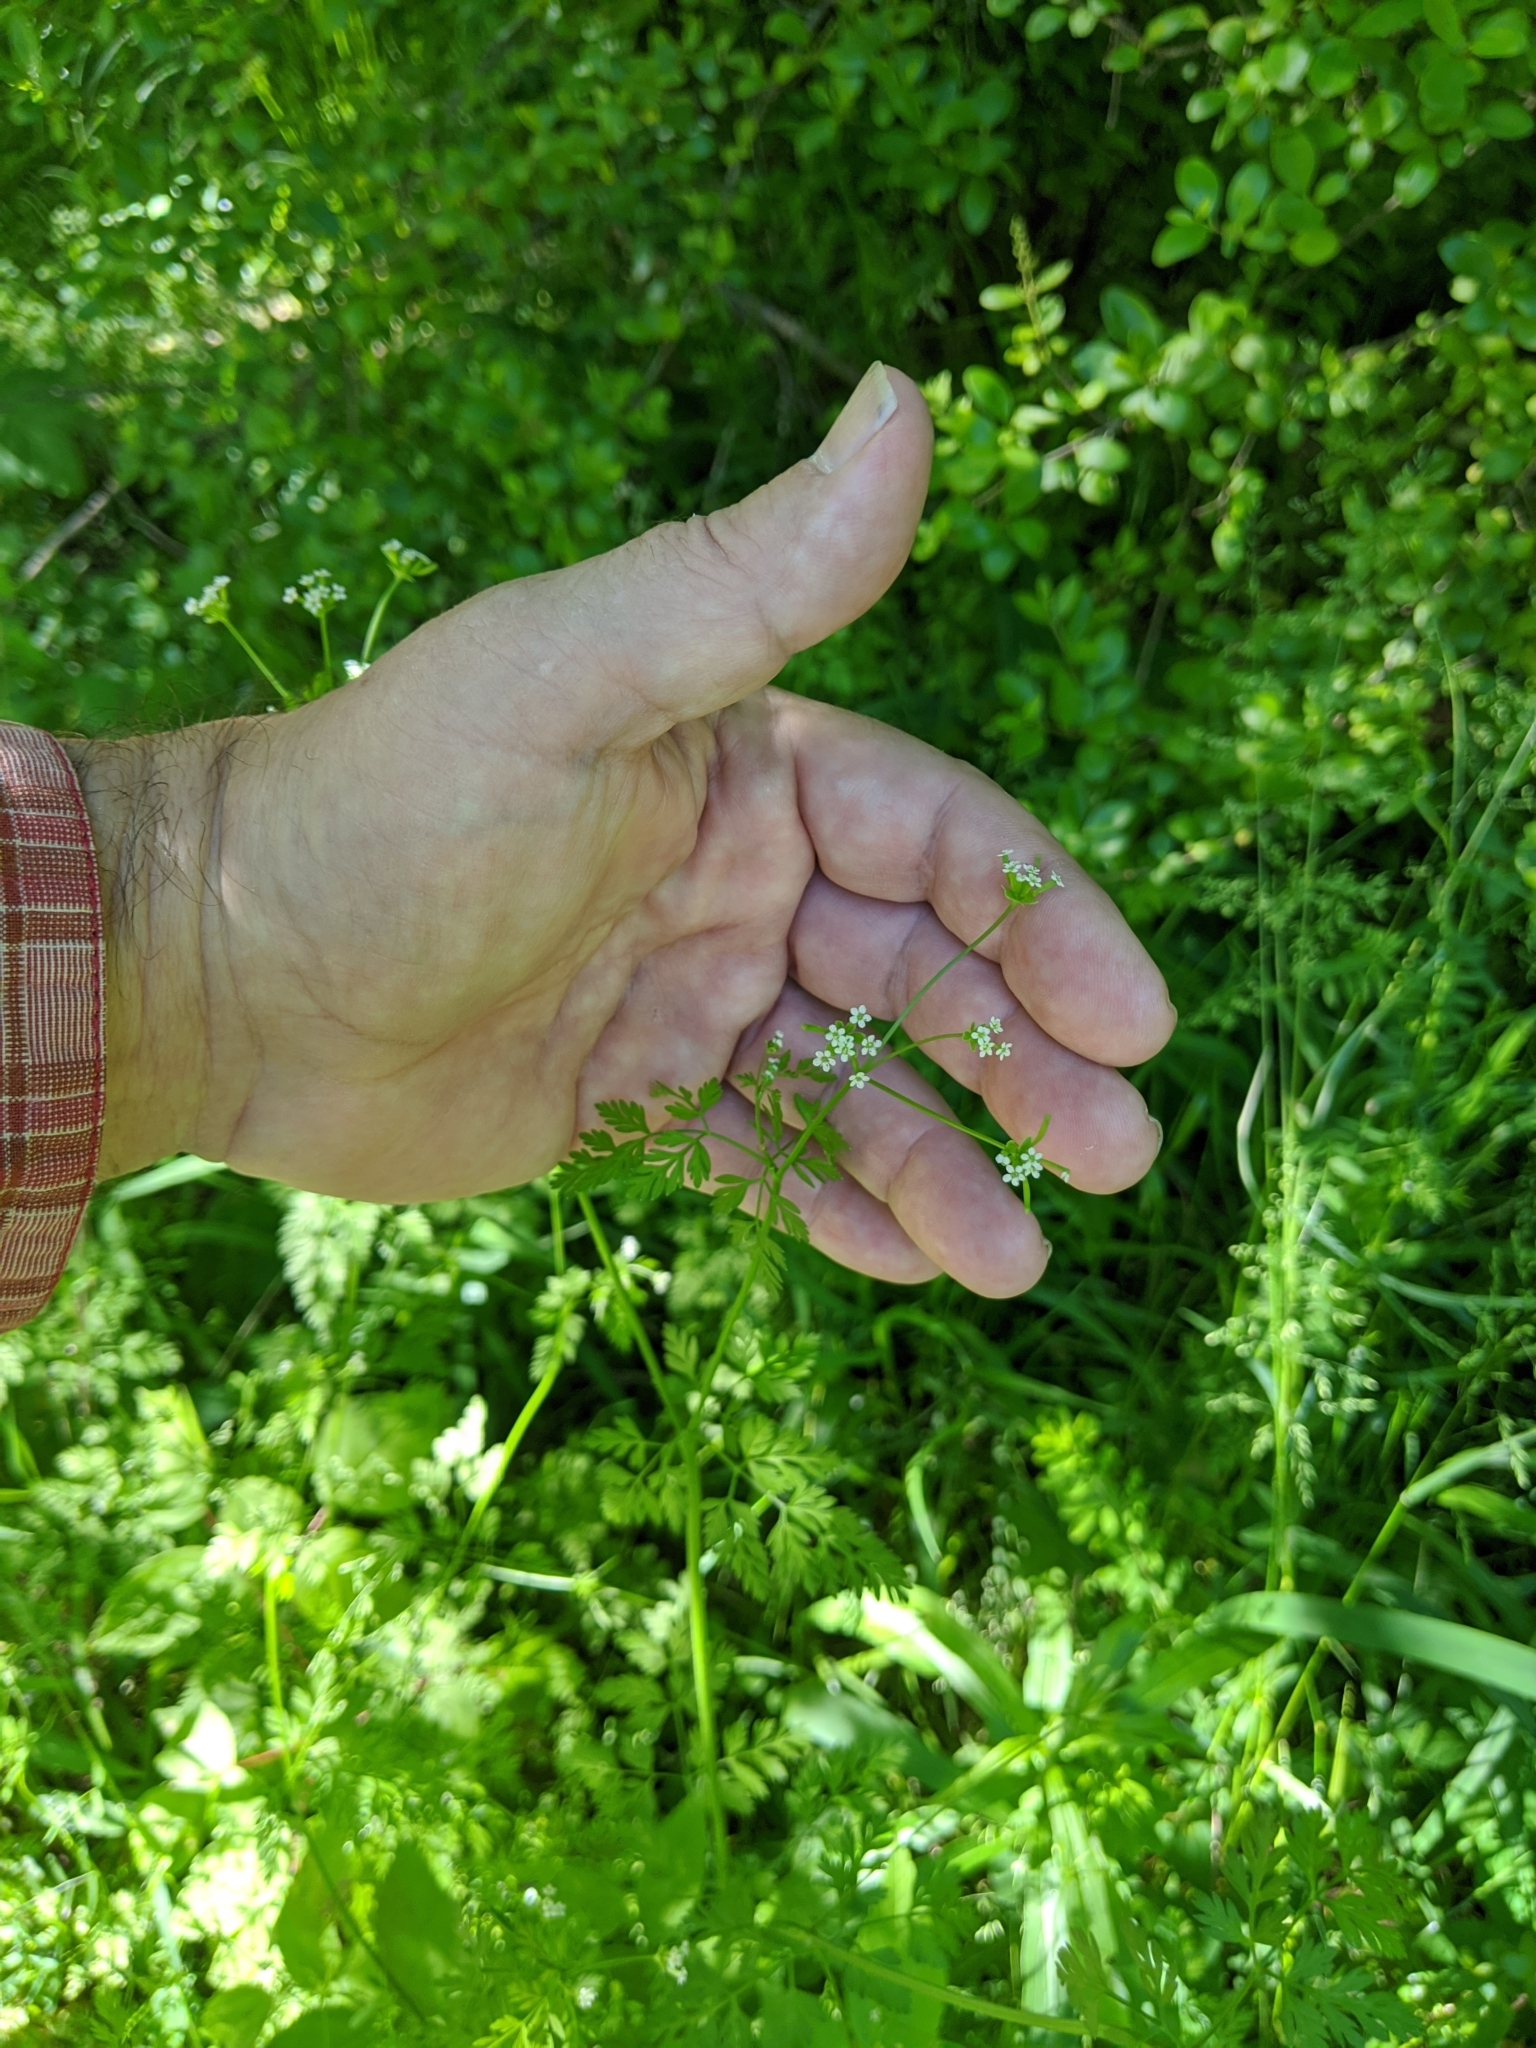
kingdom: Plantae
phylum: Tracheophyta
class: Magnoliopsida
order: Apiales
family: Apiaceae
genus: Chaerophyllum
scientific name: Chaerophyllum tainturieri
